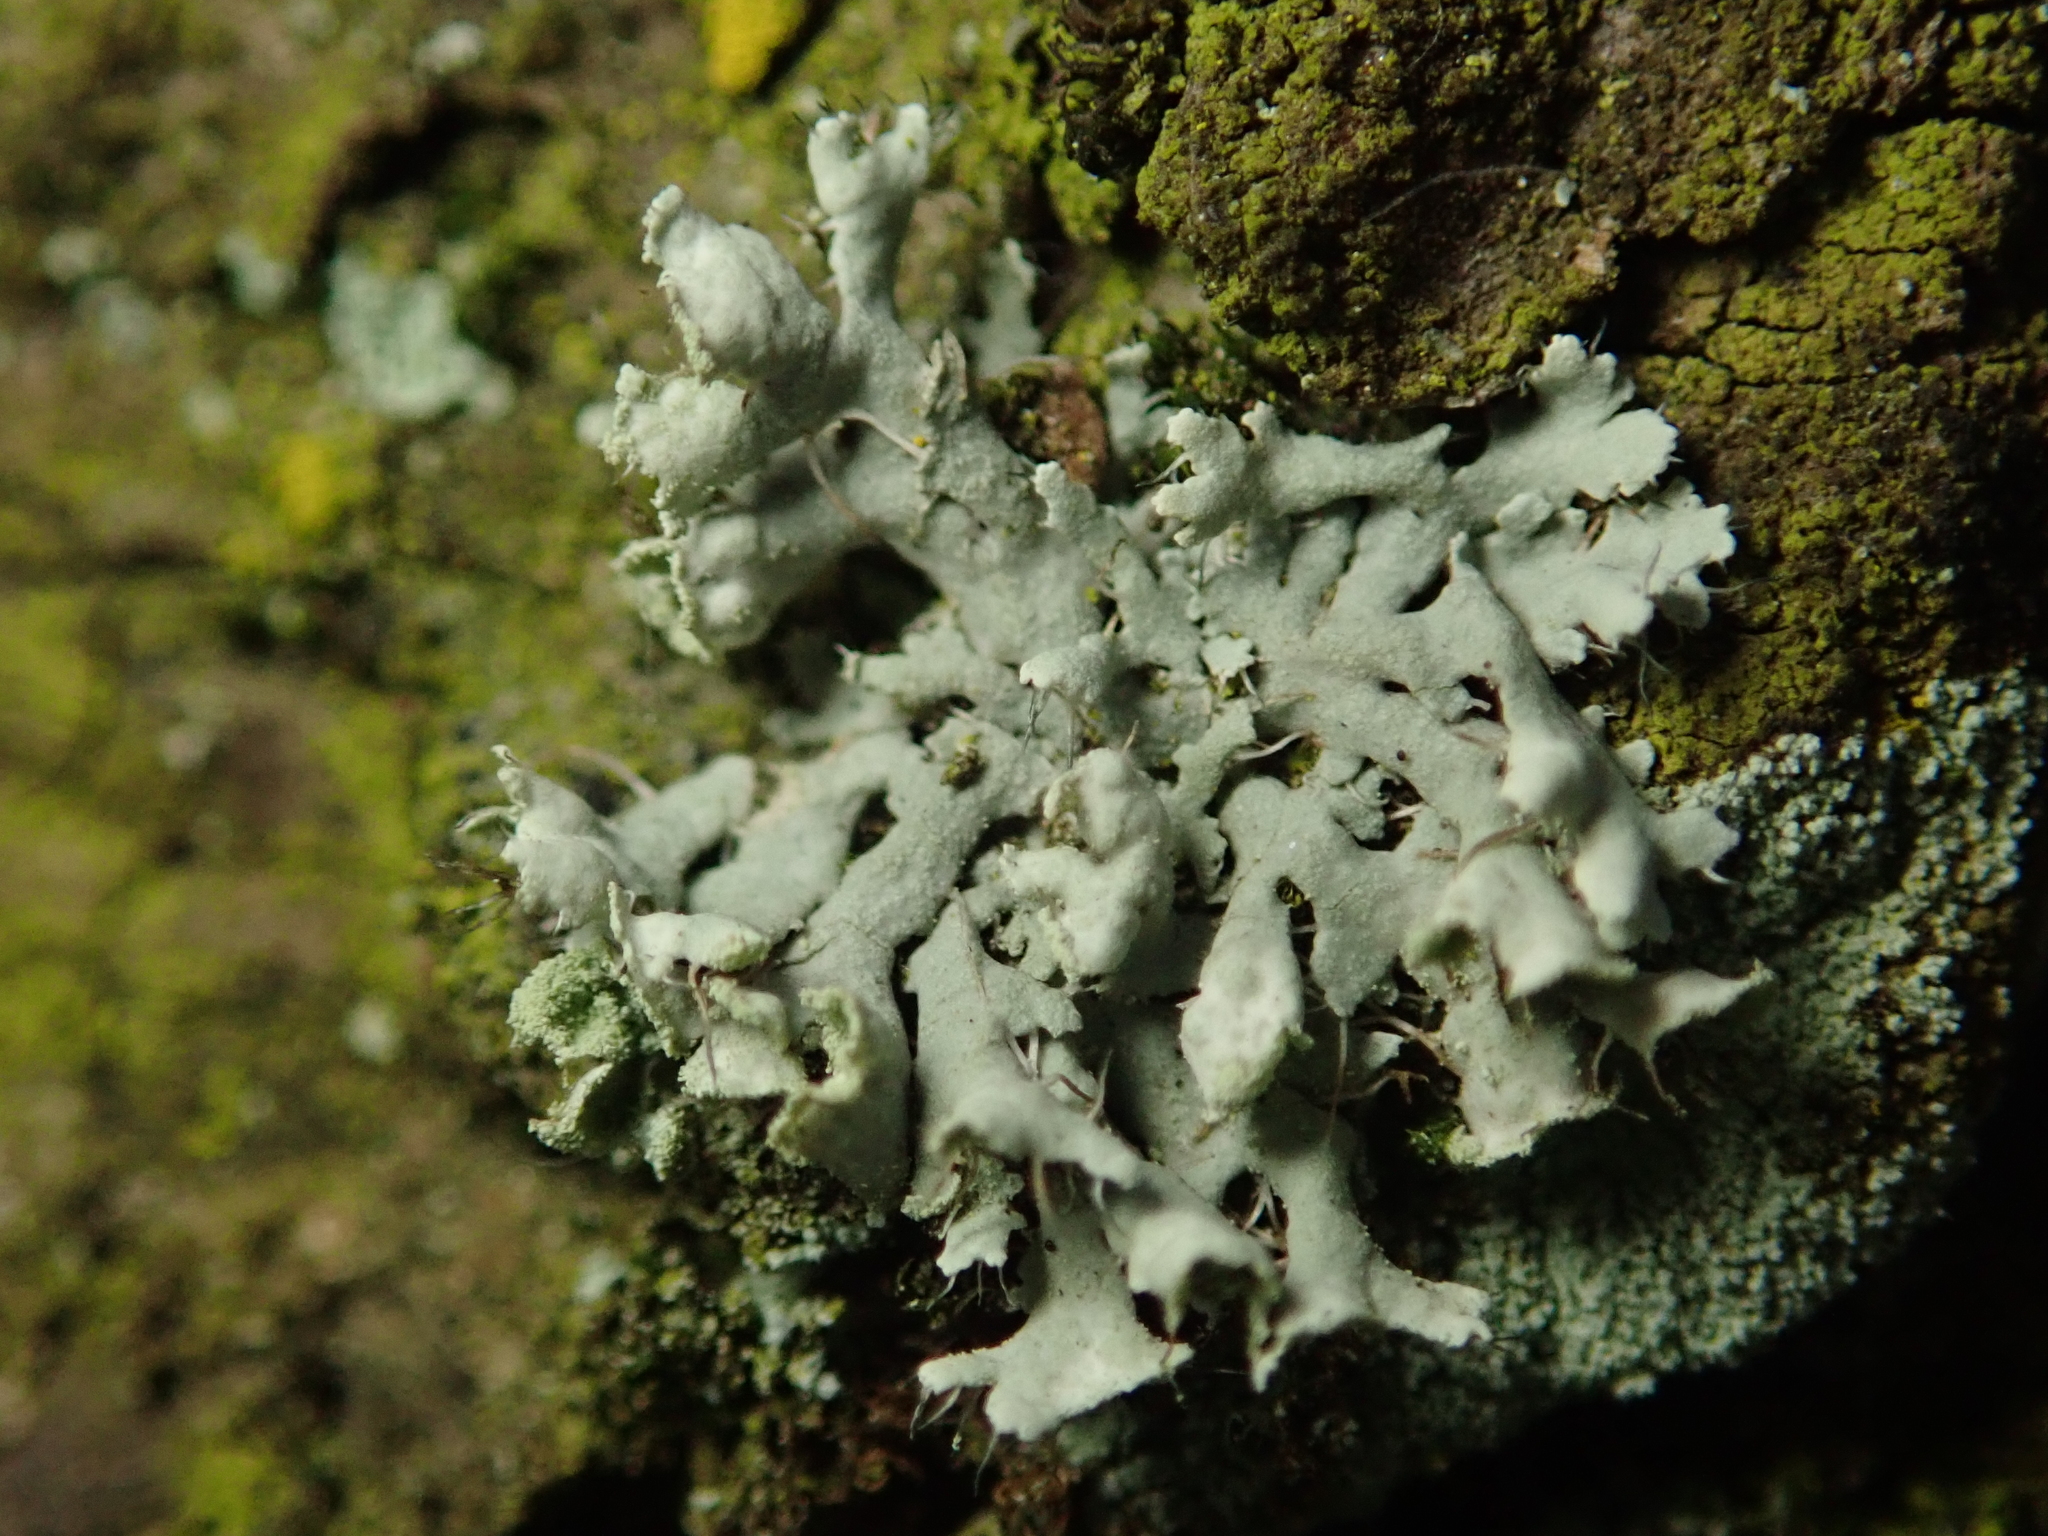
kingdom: Fungi
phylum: Ascomycota
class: Lecanoromycetes
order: Caliciales
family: Physciaceae
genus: Physcia
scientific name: Physcia adscendens
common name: Hooded rosette lichen
